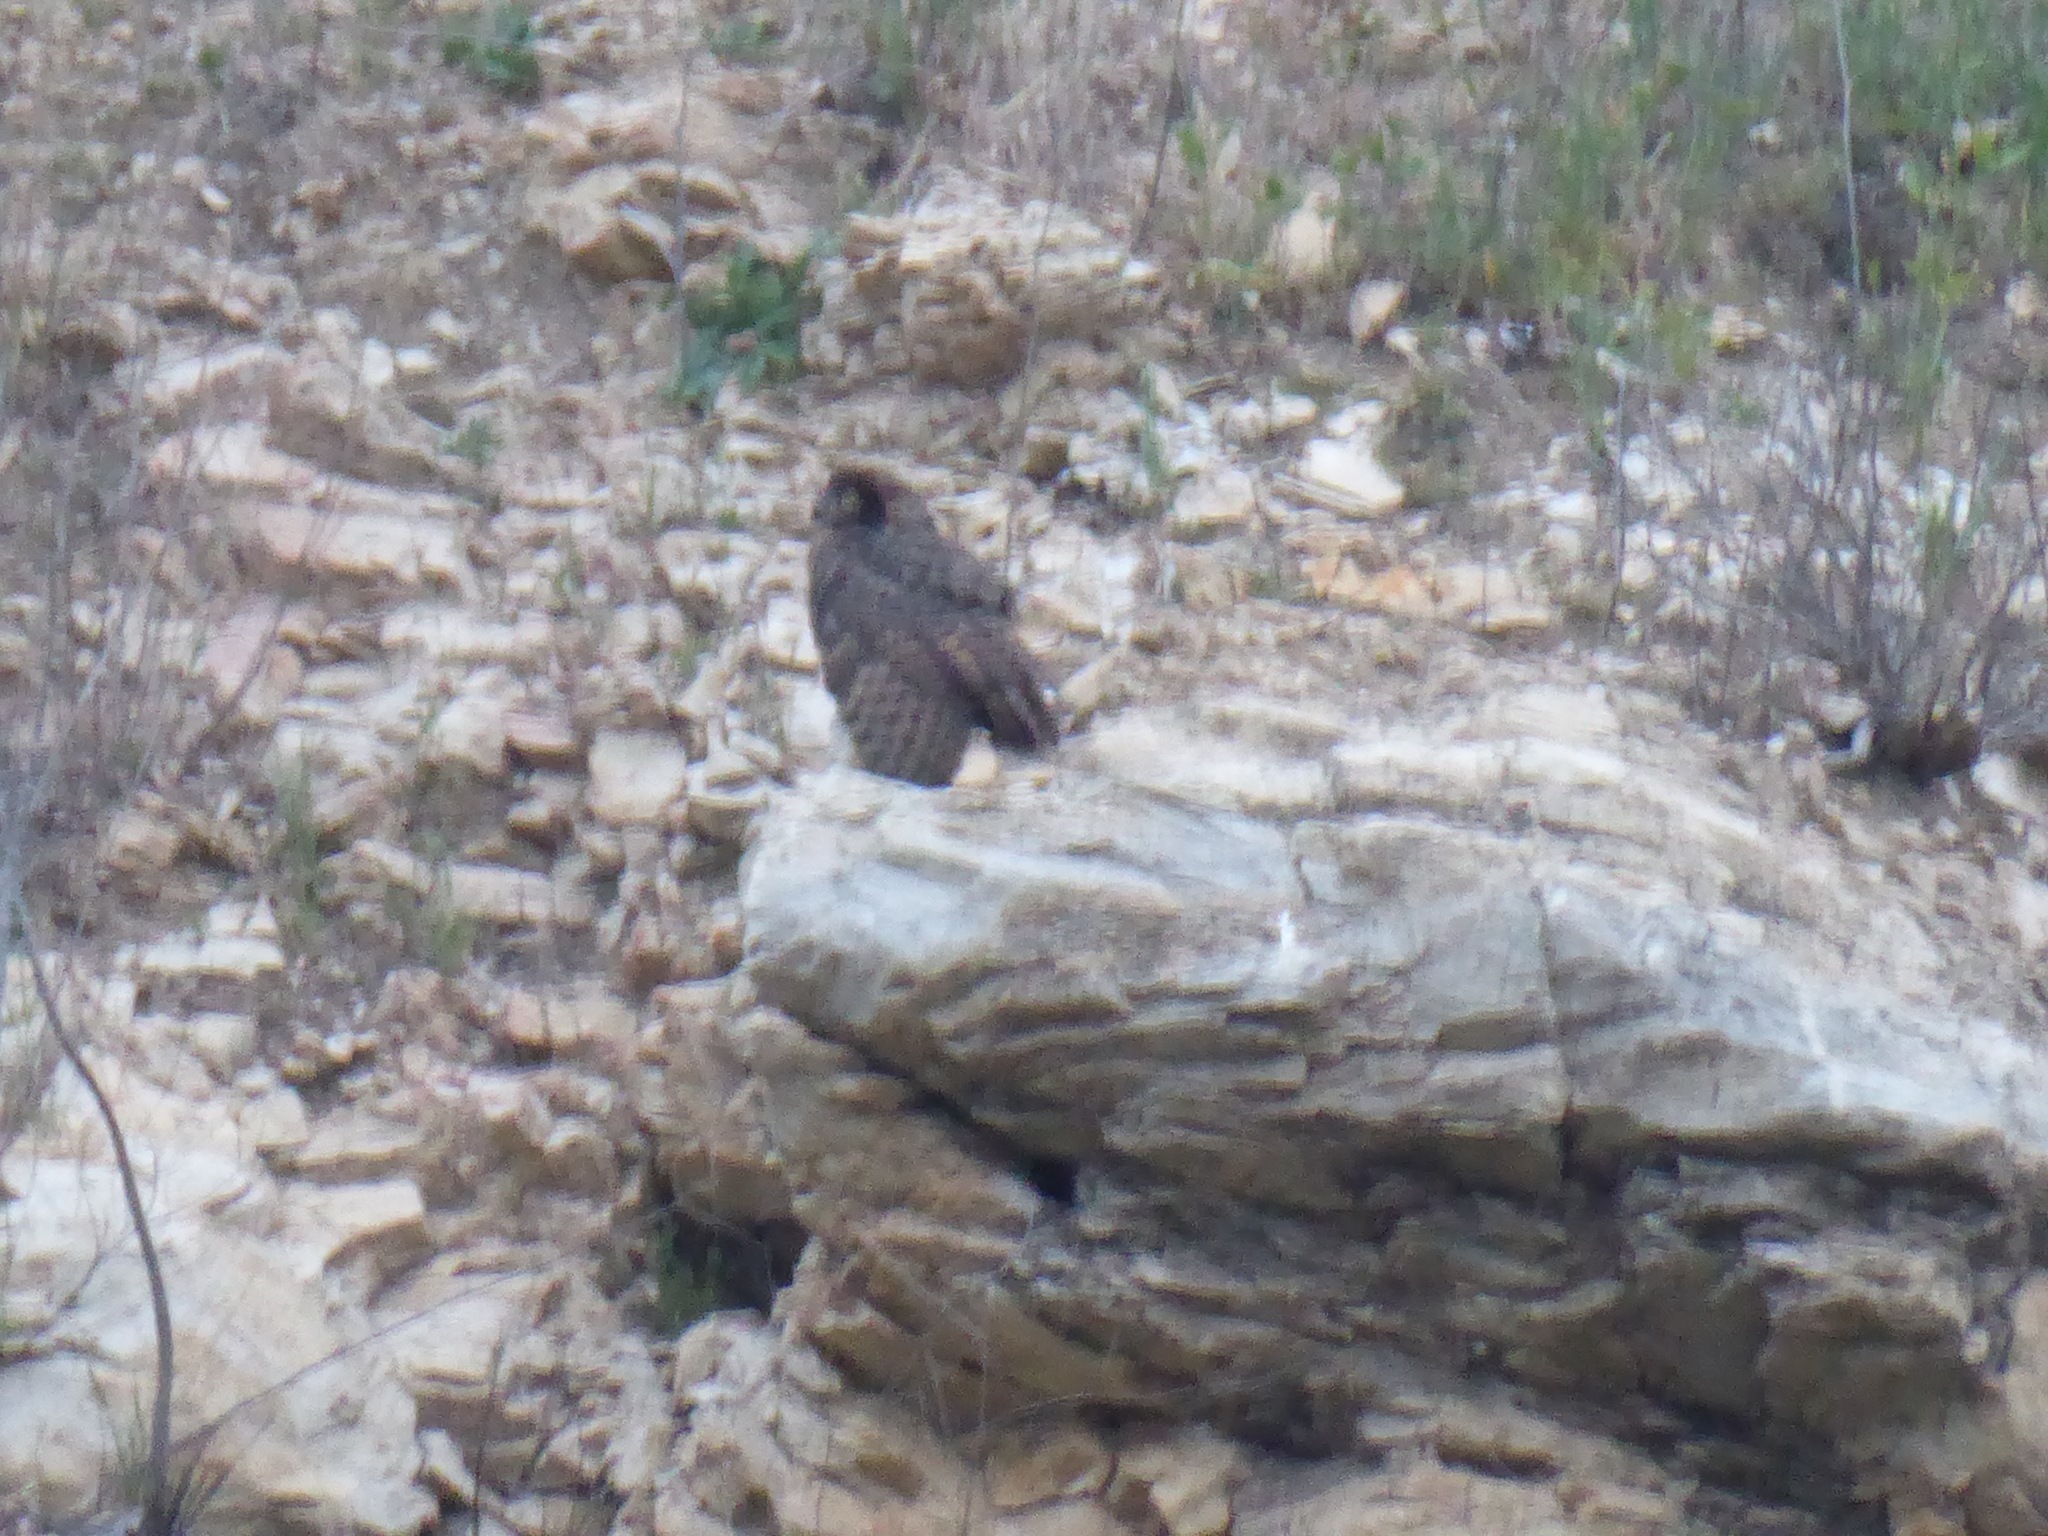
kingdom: Animalia
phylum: Chordata
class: Aves
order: Strigiformes
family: Strigidae
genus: Bubo
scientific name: Bubo virginianus
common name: Great horned owl
